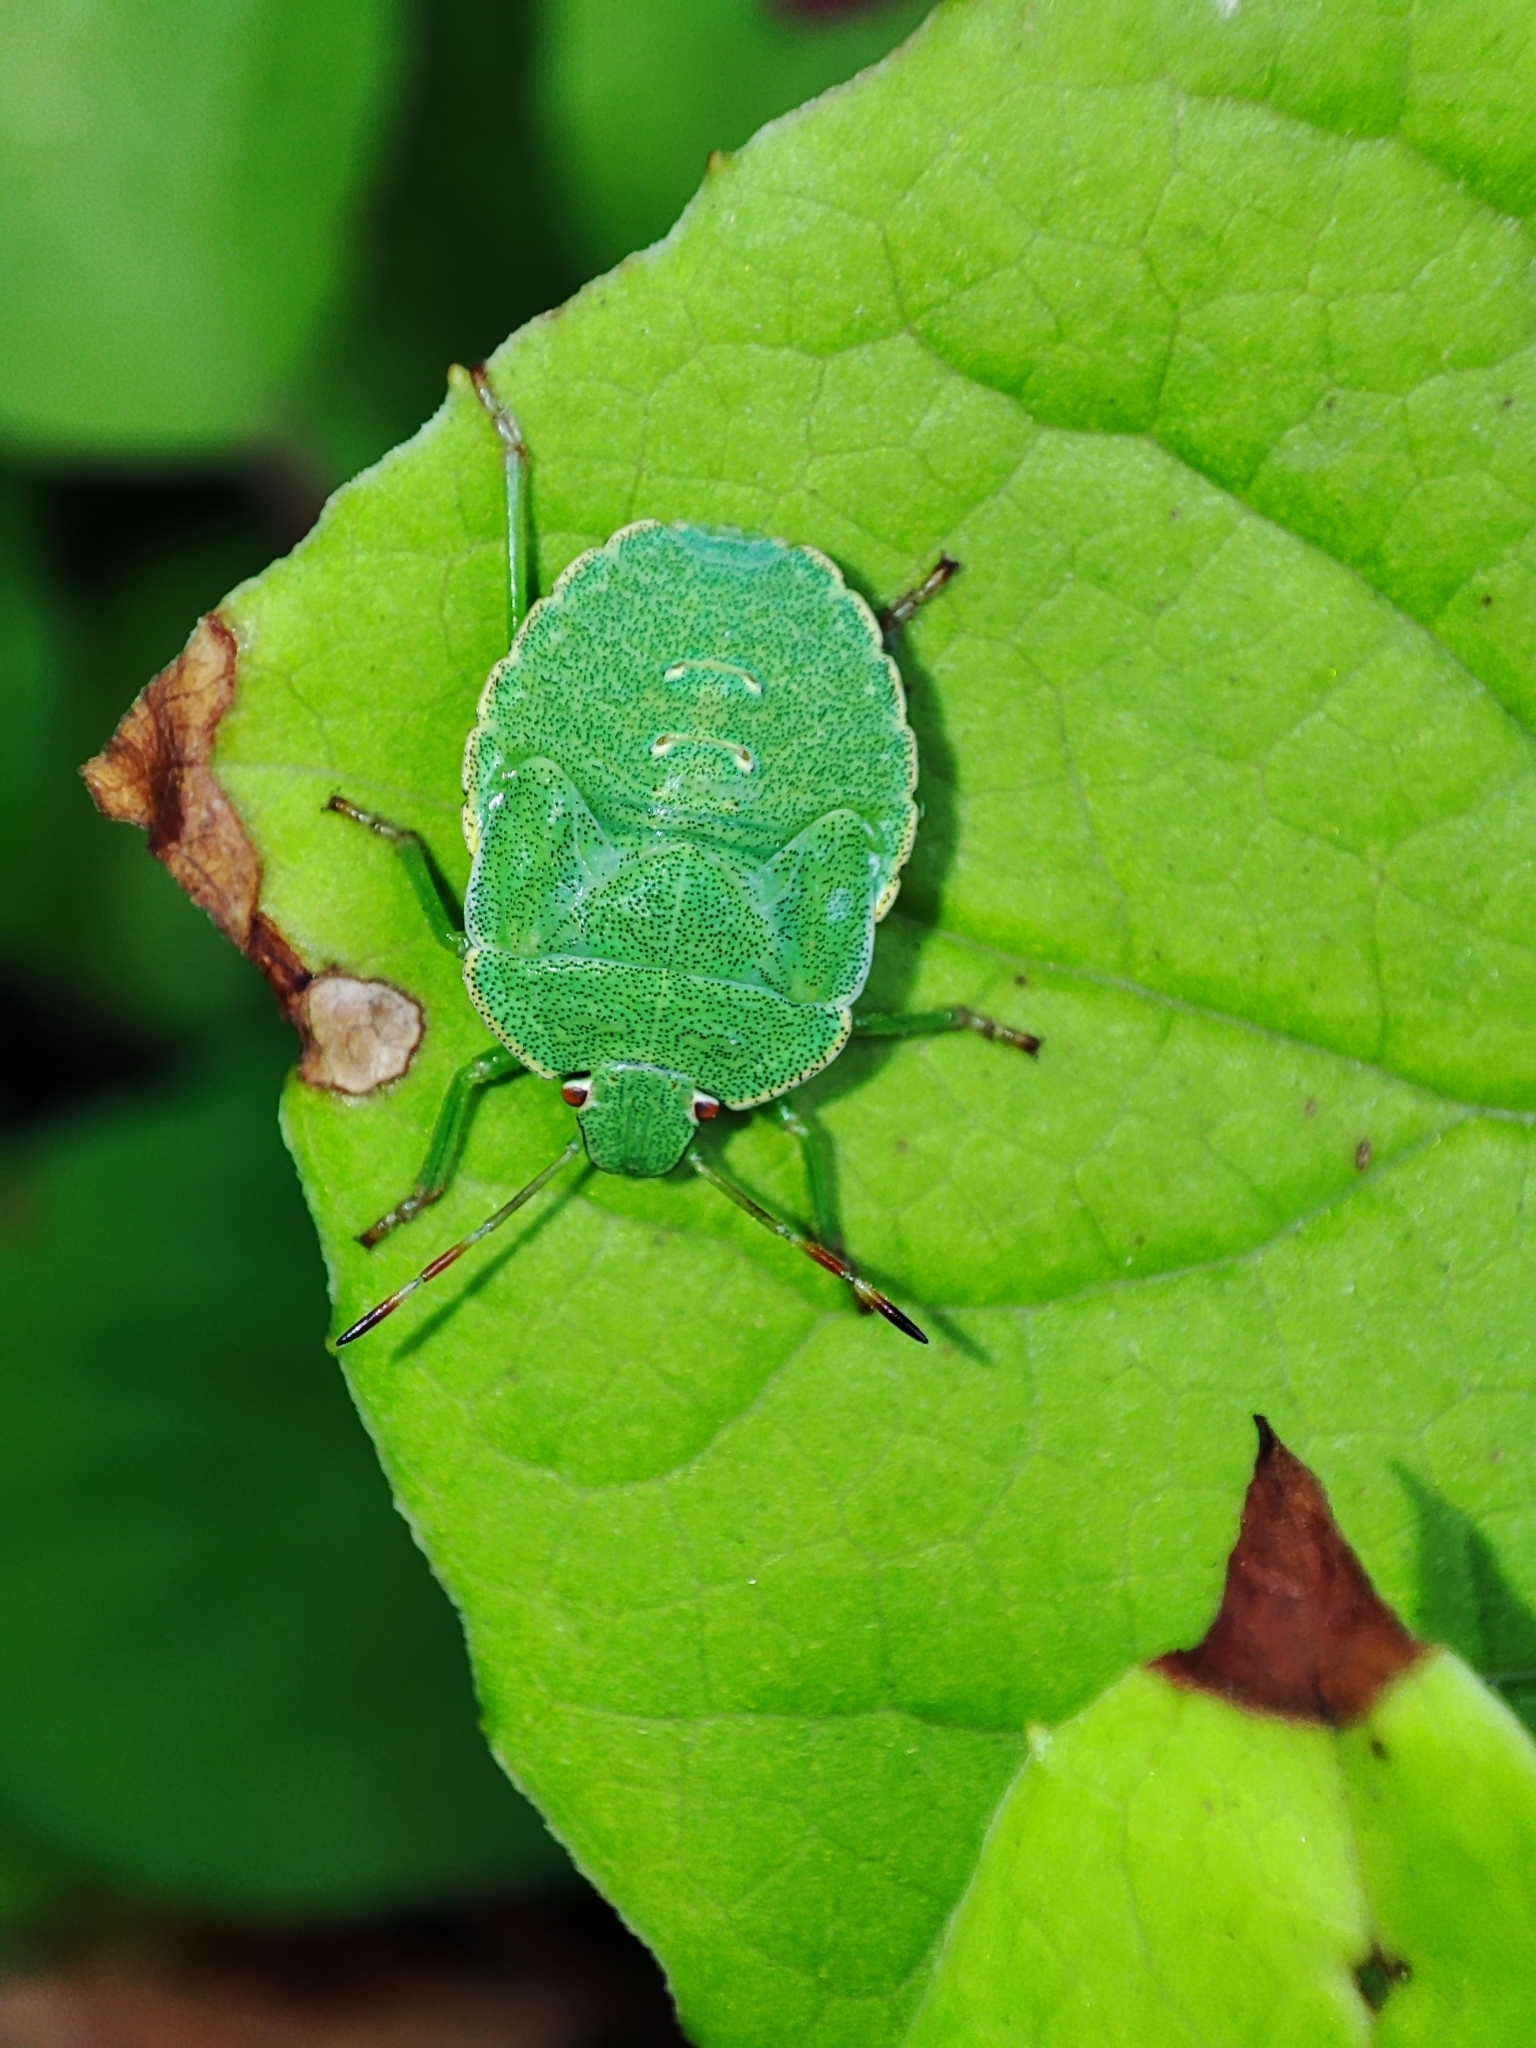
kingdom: Animalia
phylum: Arthropoda
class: Insecta
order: Hemiptera
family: Pentatomidae
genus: Palomena
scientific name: Palomena prasina
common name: Green shieldbug
